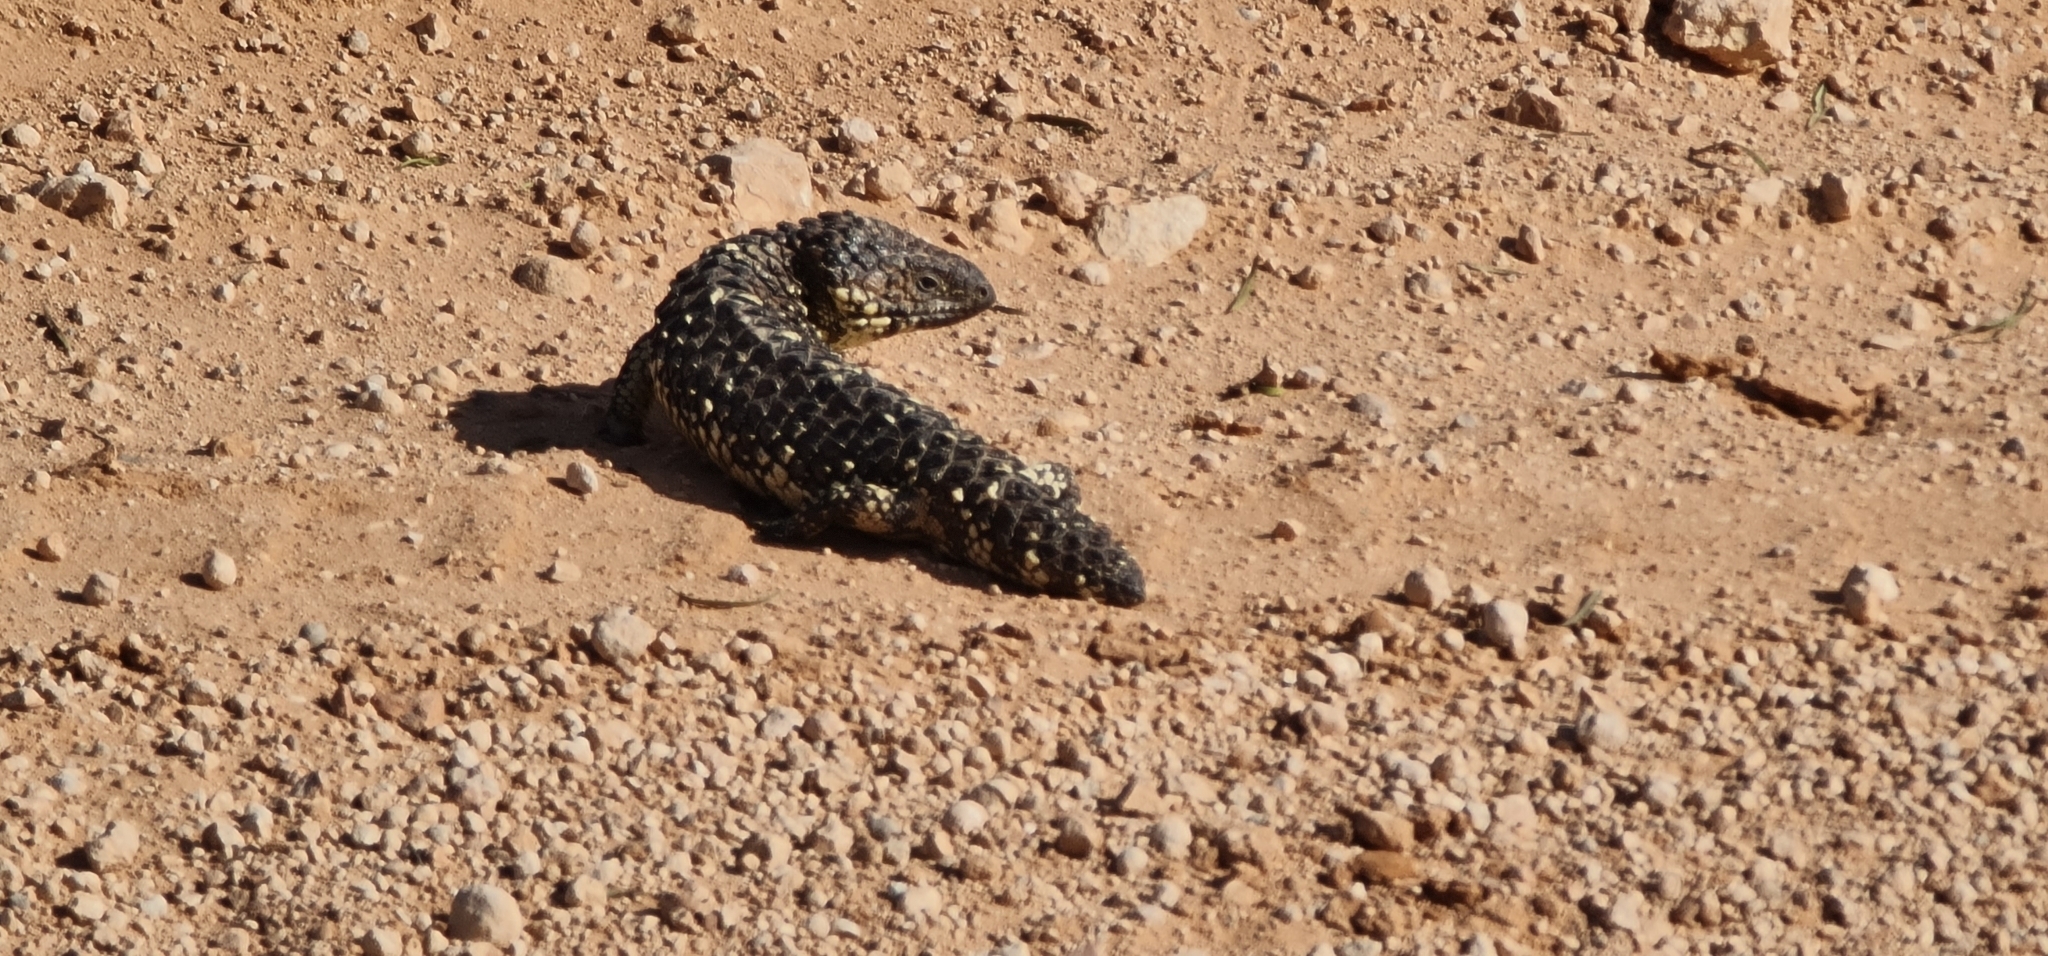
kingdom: Animalia
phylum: Chordata
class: Squamata
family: Scincidae
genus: Tiliqua
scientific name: Tiliqua rugosa
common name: Pinecone lizard
